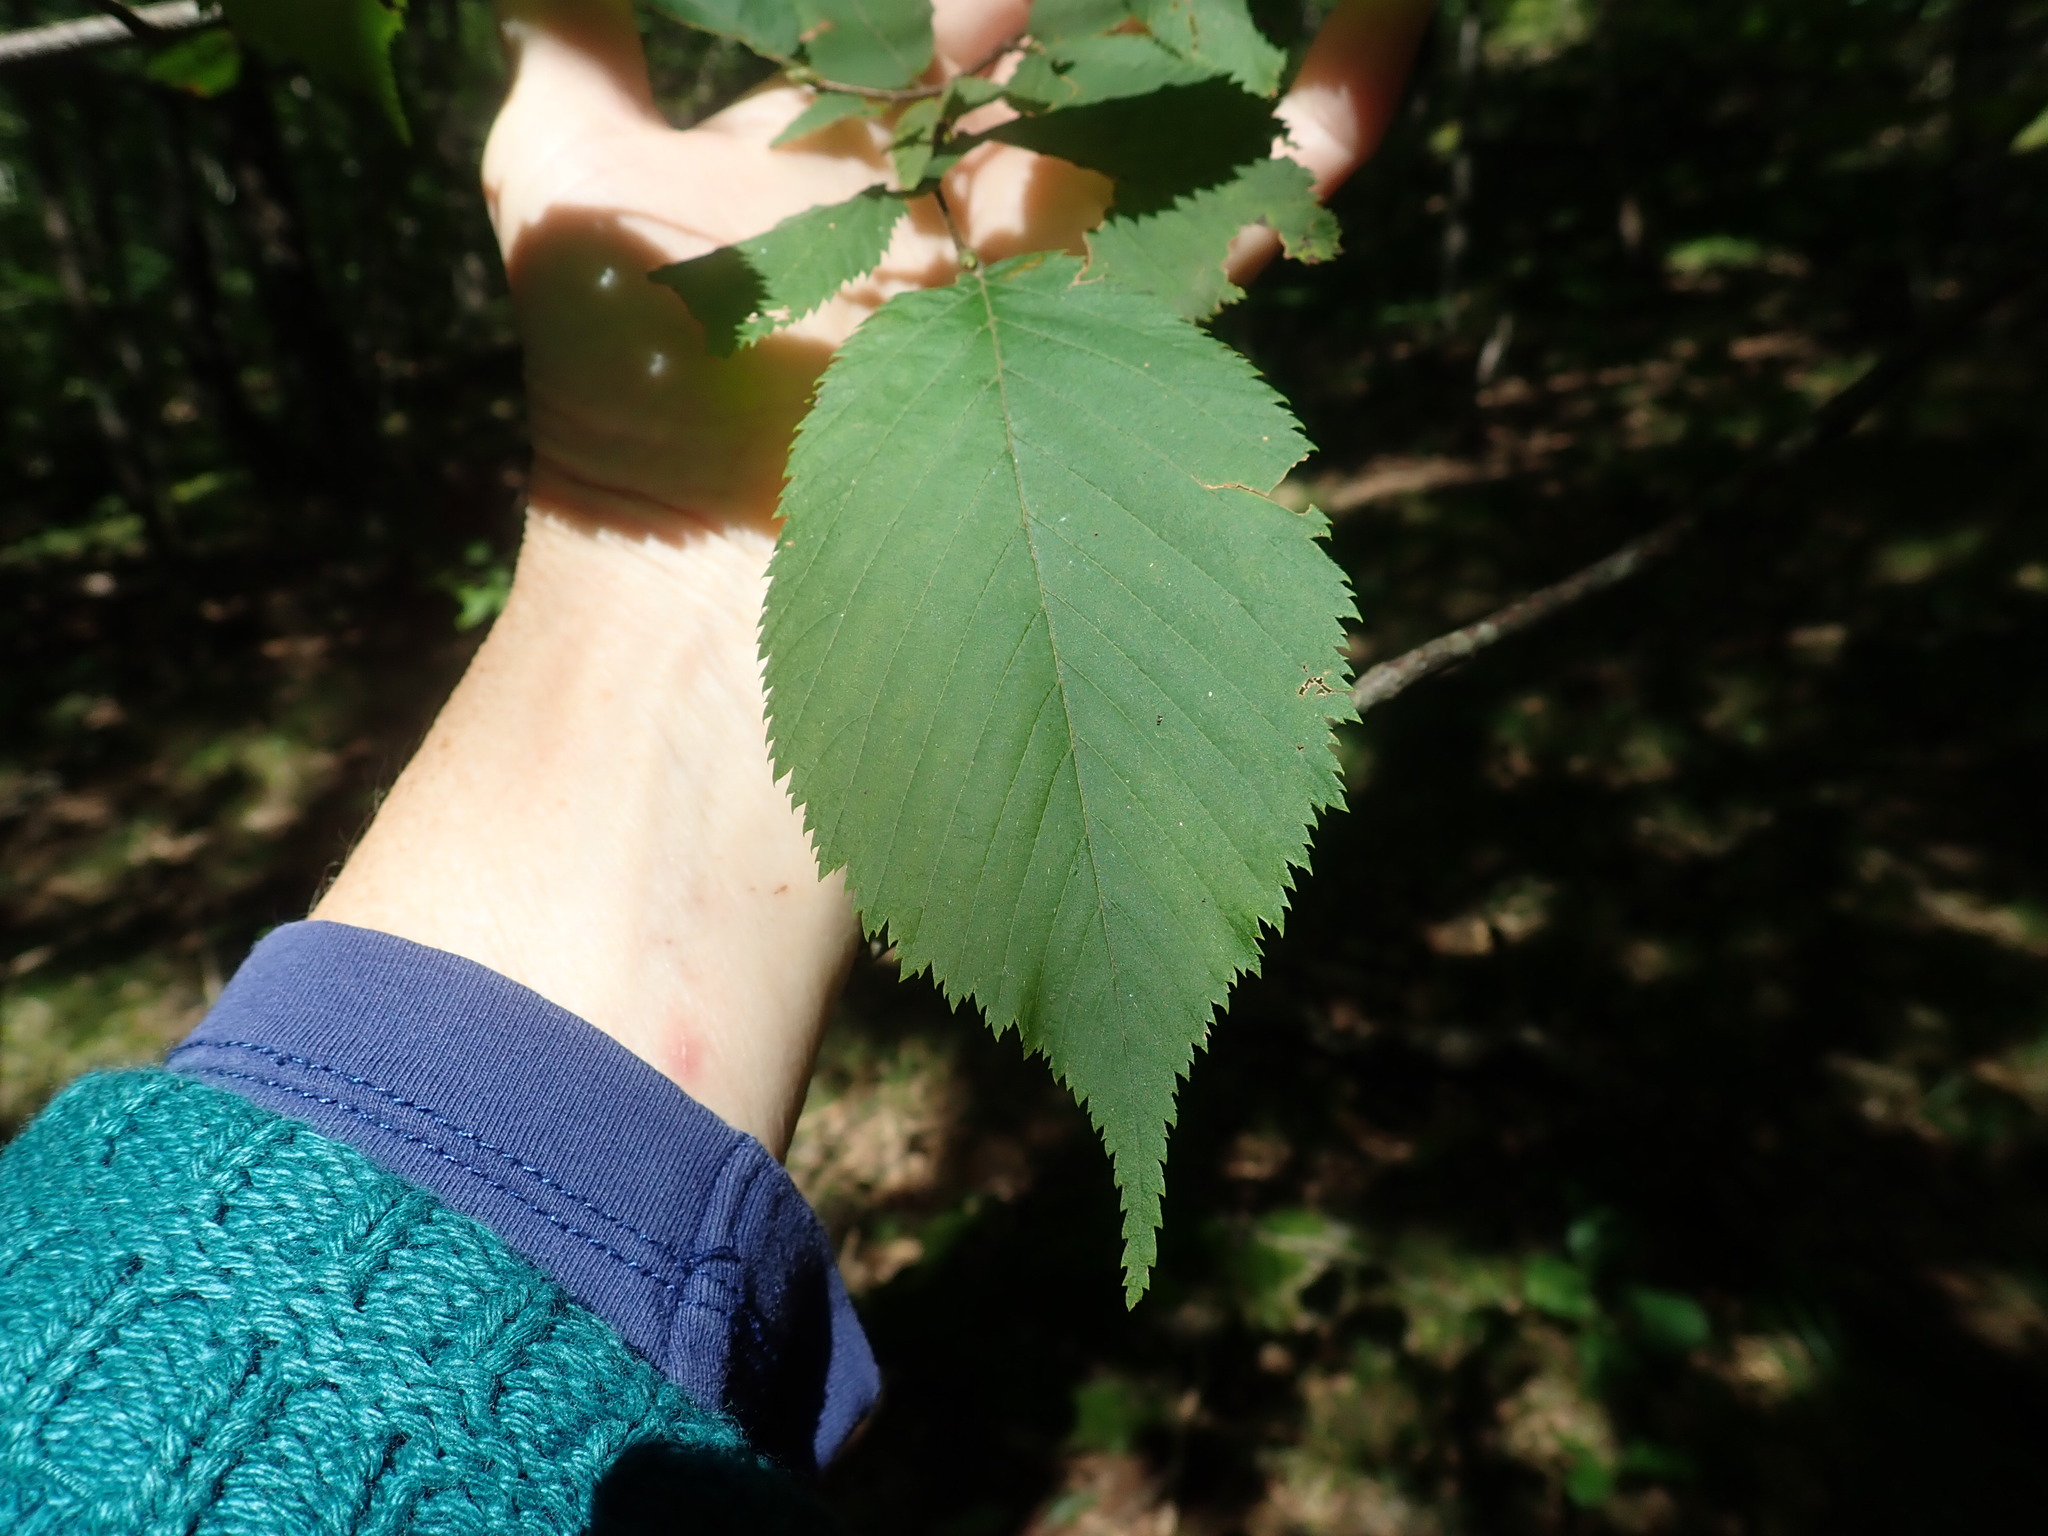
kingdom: Plantae
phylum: Tracheophyta
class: Magnoliopsida
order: Fagales
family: Betulaceae
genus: Ostrya
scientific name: Ostrya virginiana
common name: Ironwood
